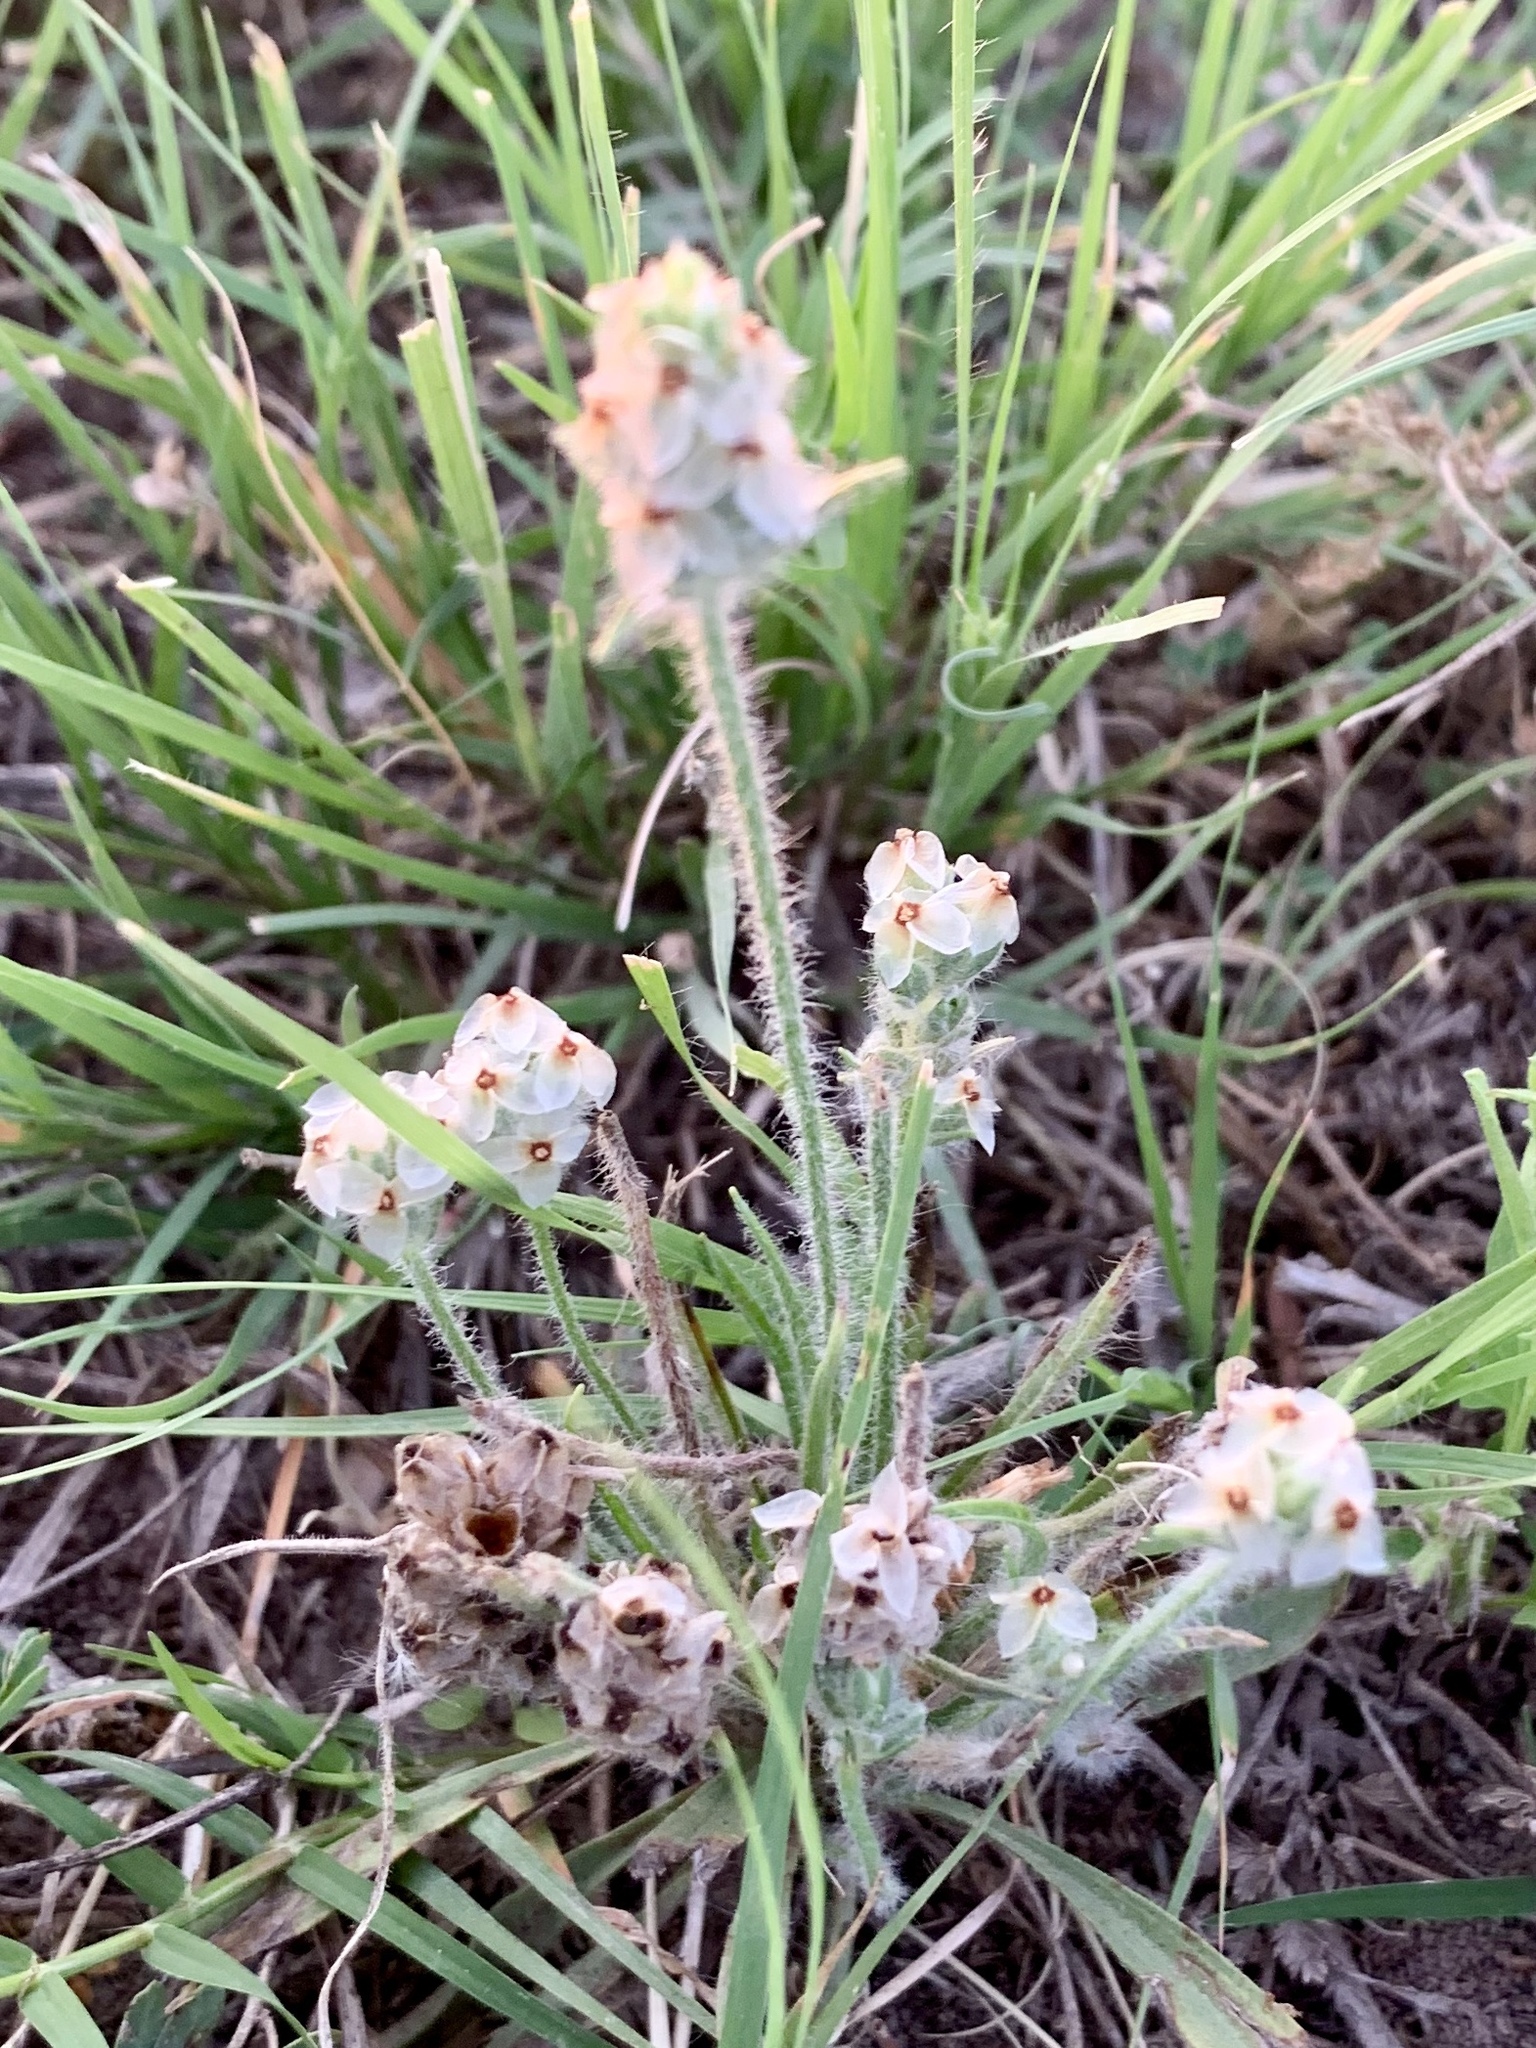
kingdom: Plantae
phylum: Tracheophyta
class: Magnoliopsida
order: Lamiales
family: Plantaginaceae
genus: Plantago
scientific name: Plantago helleri
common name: Heller's plantain
